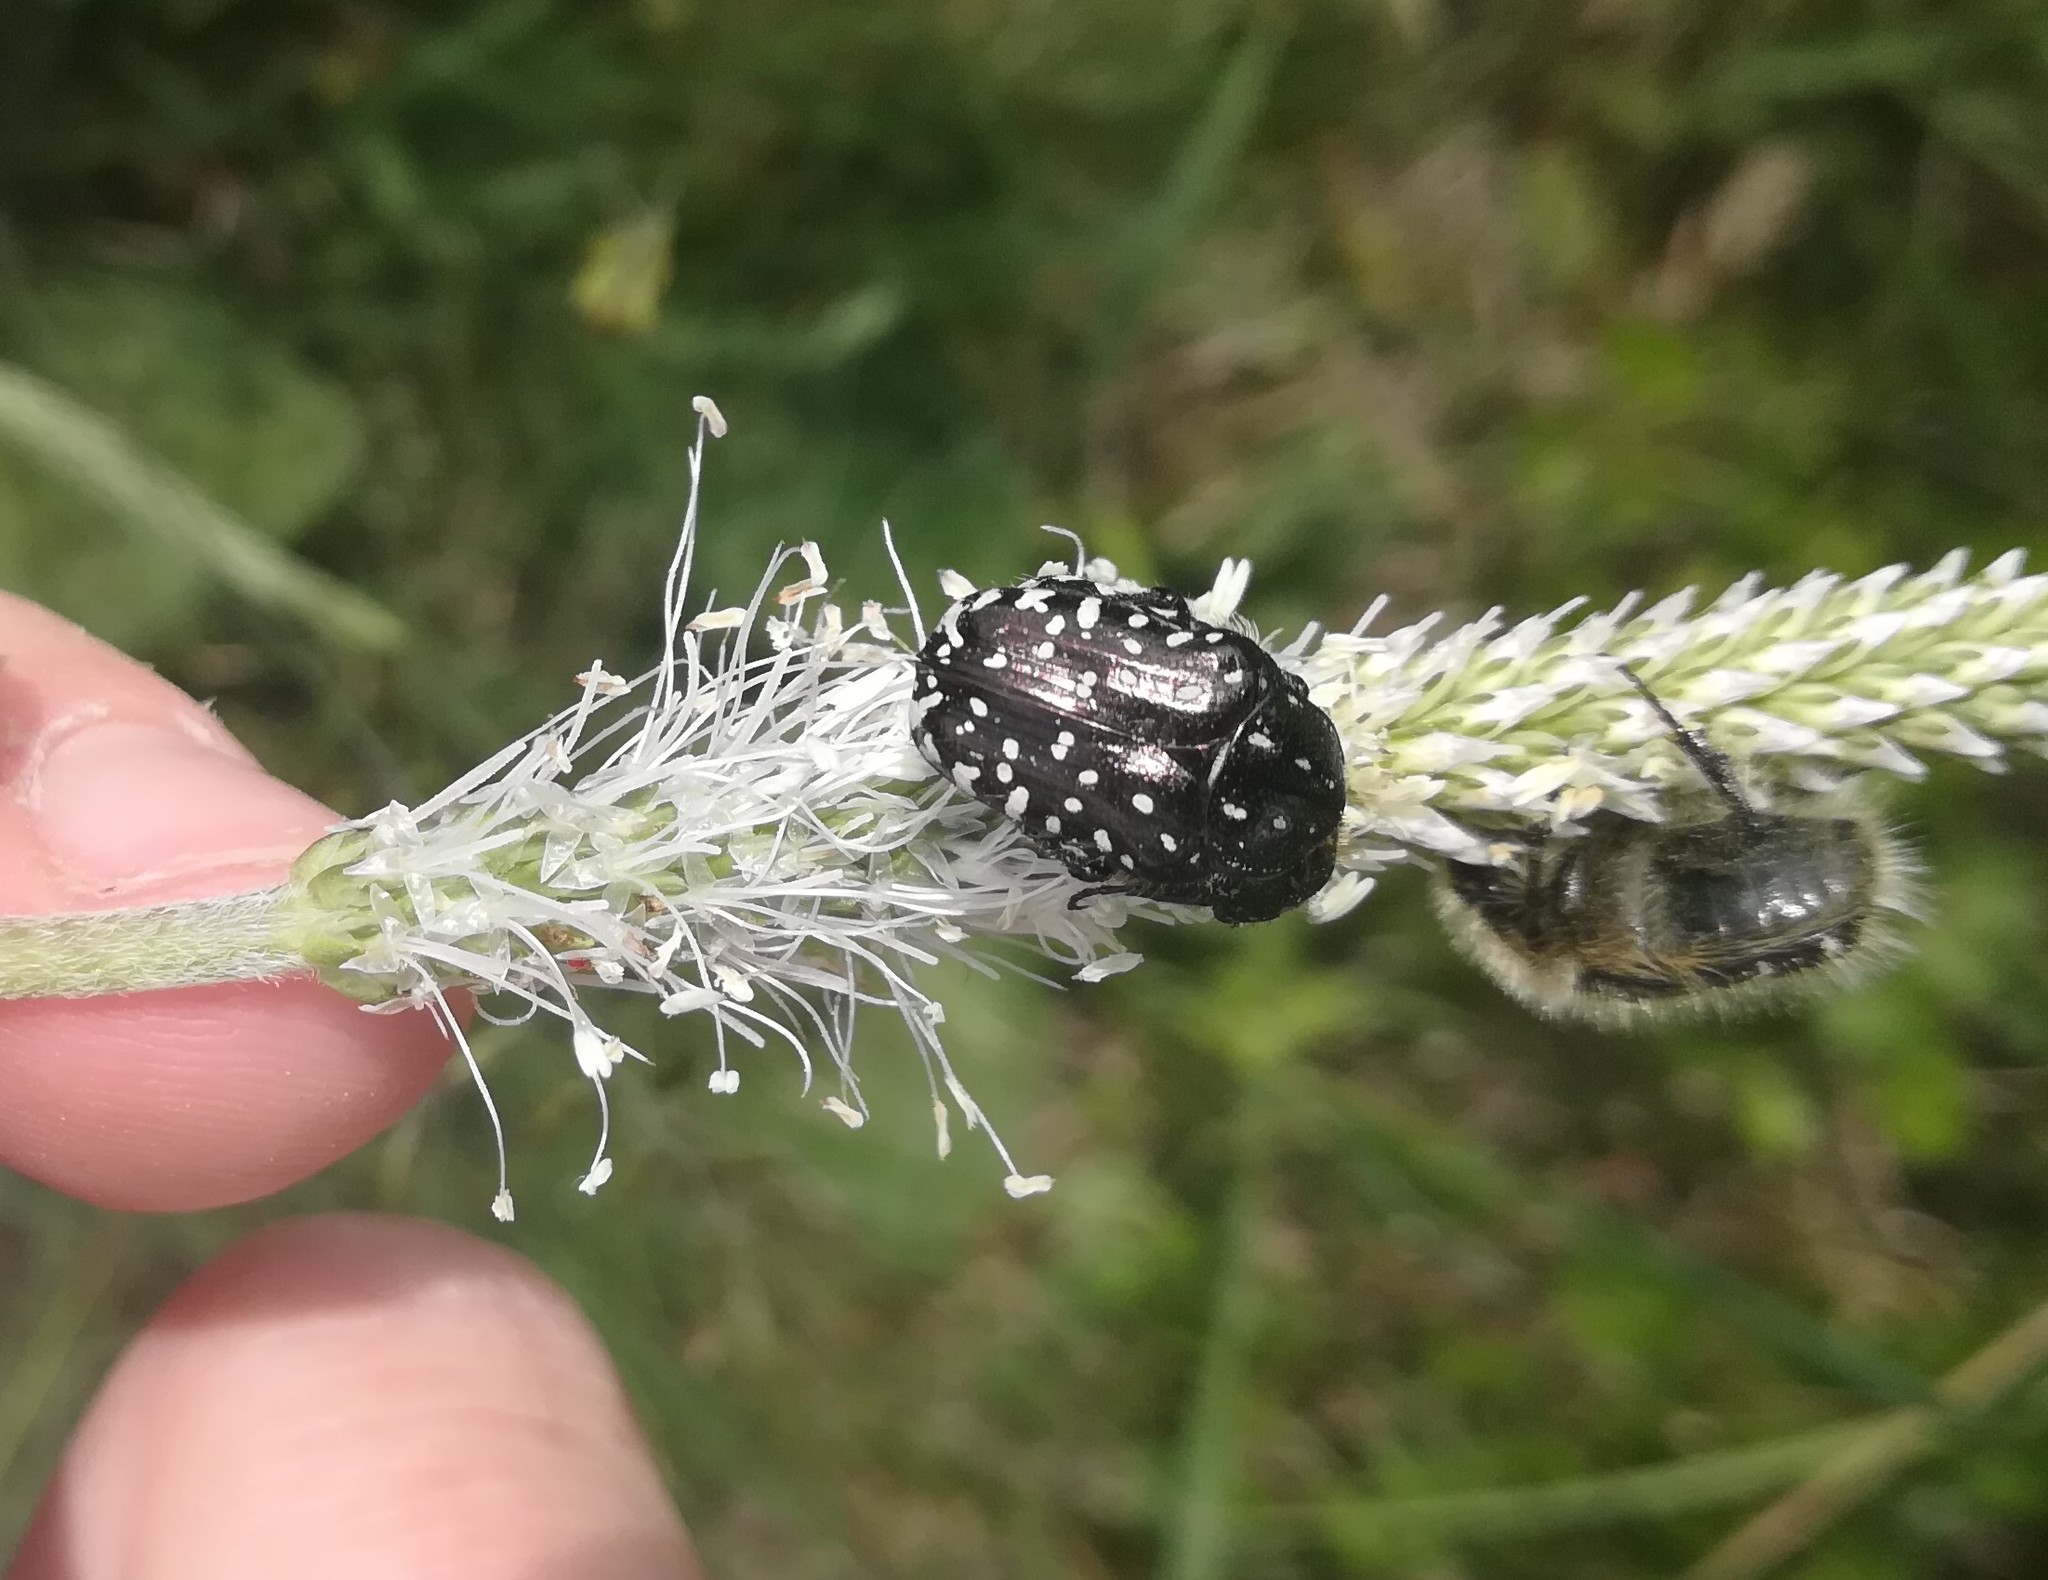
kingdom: Animalia
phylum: Arthropoda
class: Insecta
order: Coleoptera
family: Scarabaeidae
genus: Oxythyrea
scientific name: Oxythyrea funesta
